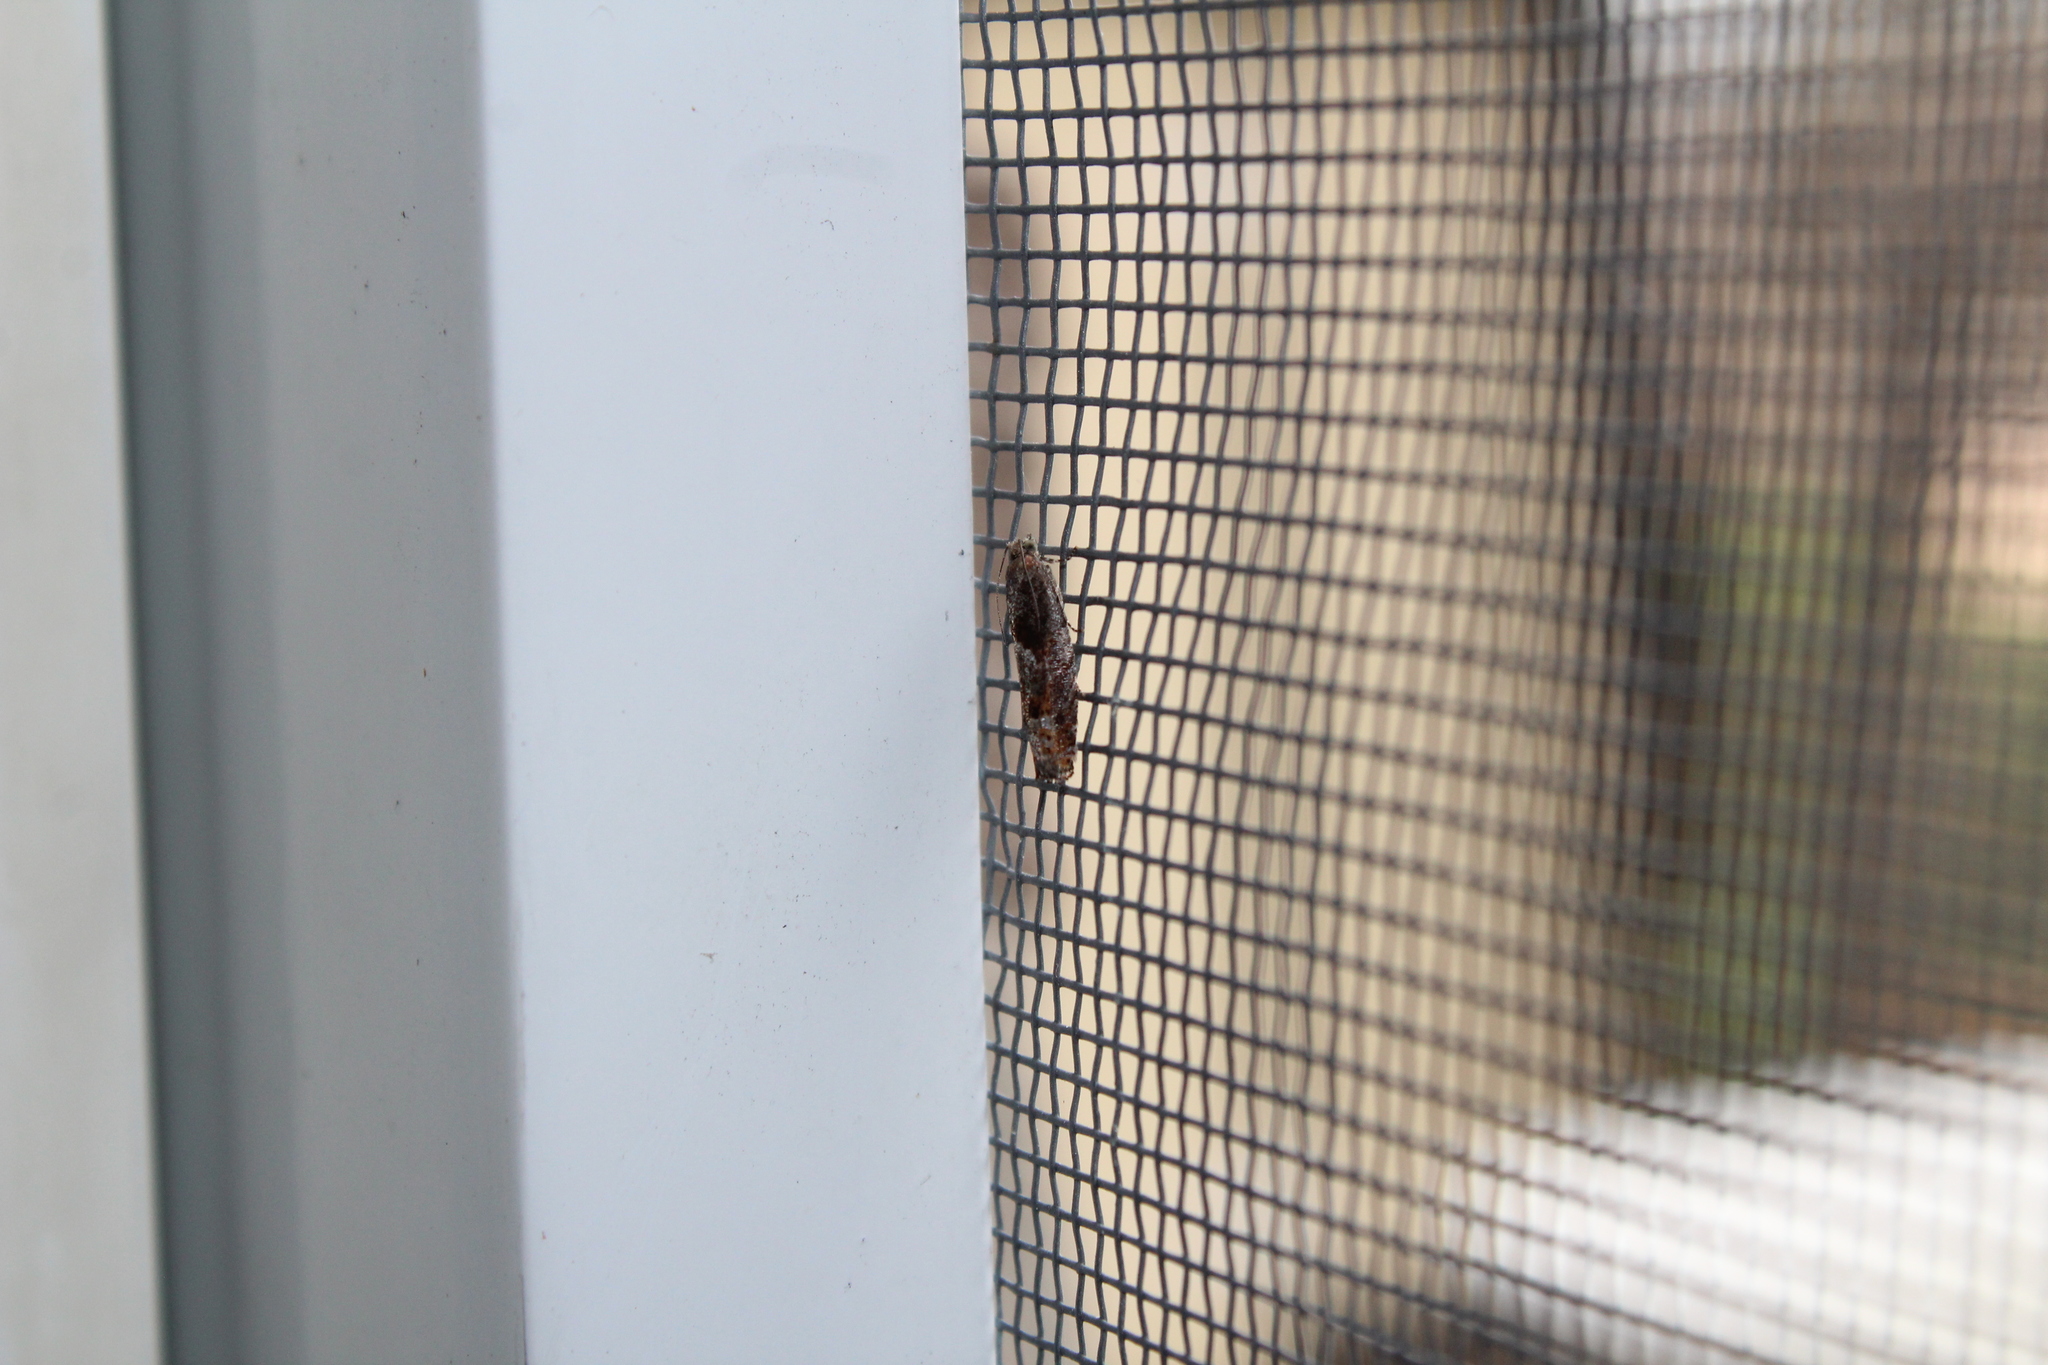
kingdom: Animalia
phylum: Arthropoda
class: Insecta
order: Lepidoptera
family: Tortricidae
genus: Pseudexentera
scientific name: Pseudexentera mali
